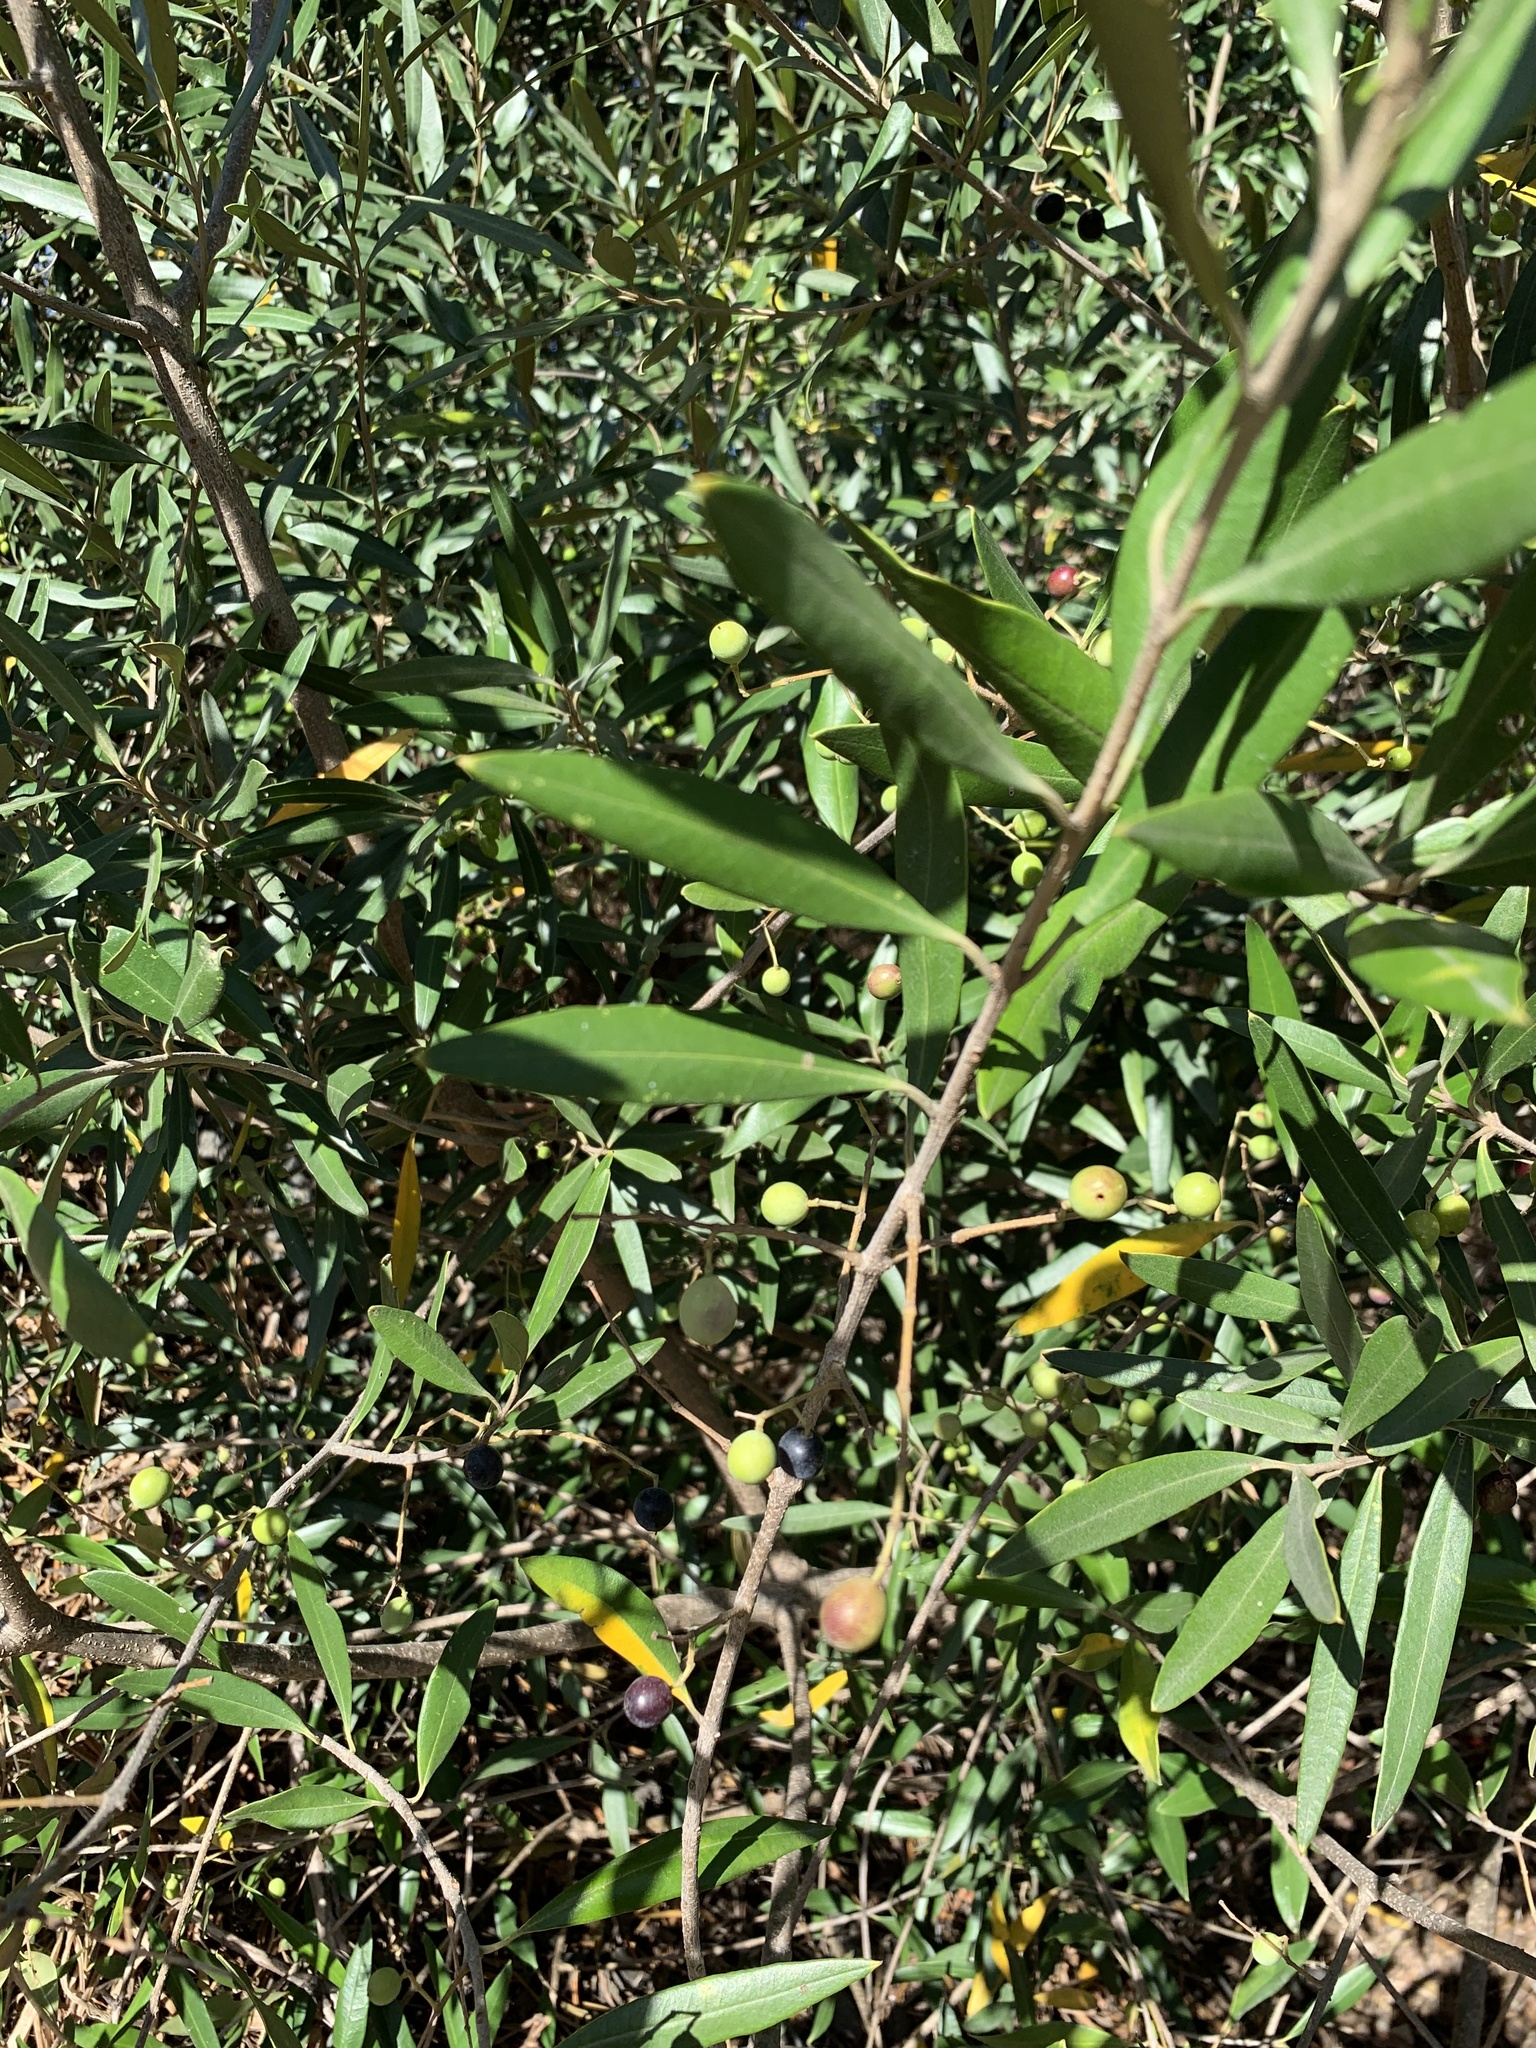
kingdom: Plantae
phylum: Tracheophyta
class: Magnoliopsida
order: Lamiales
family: Oleaceae
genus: Olea
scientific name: Olea europaea
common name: Olive
